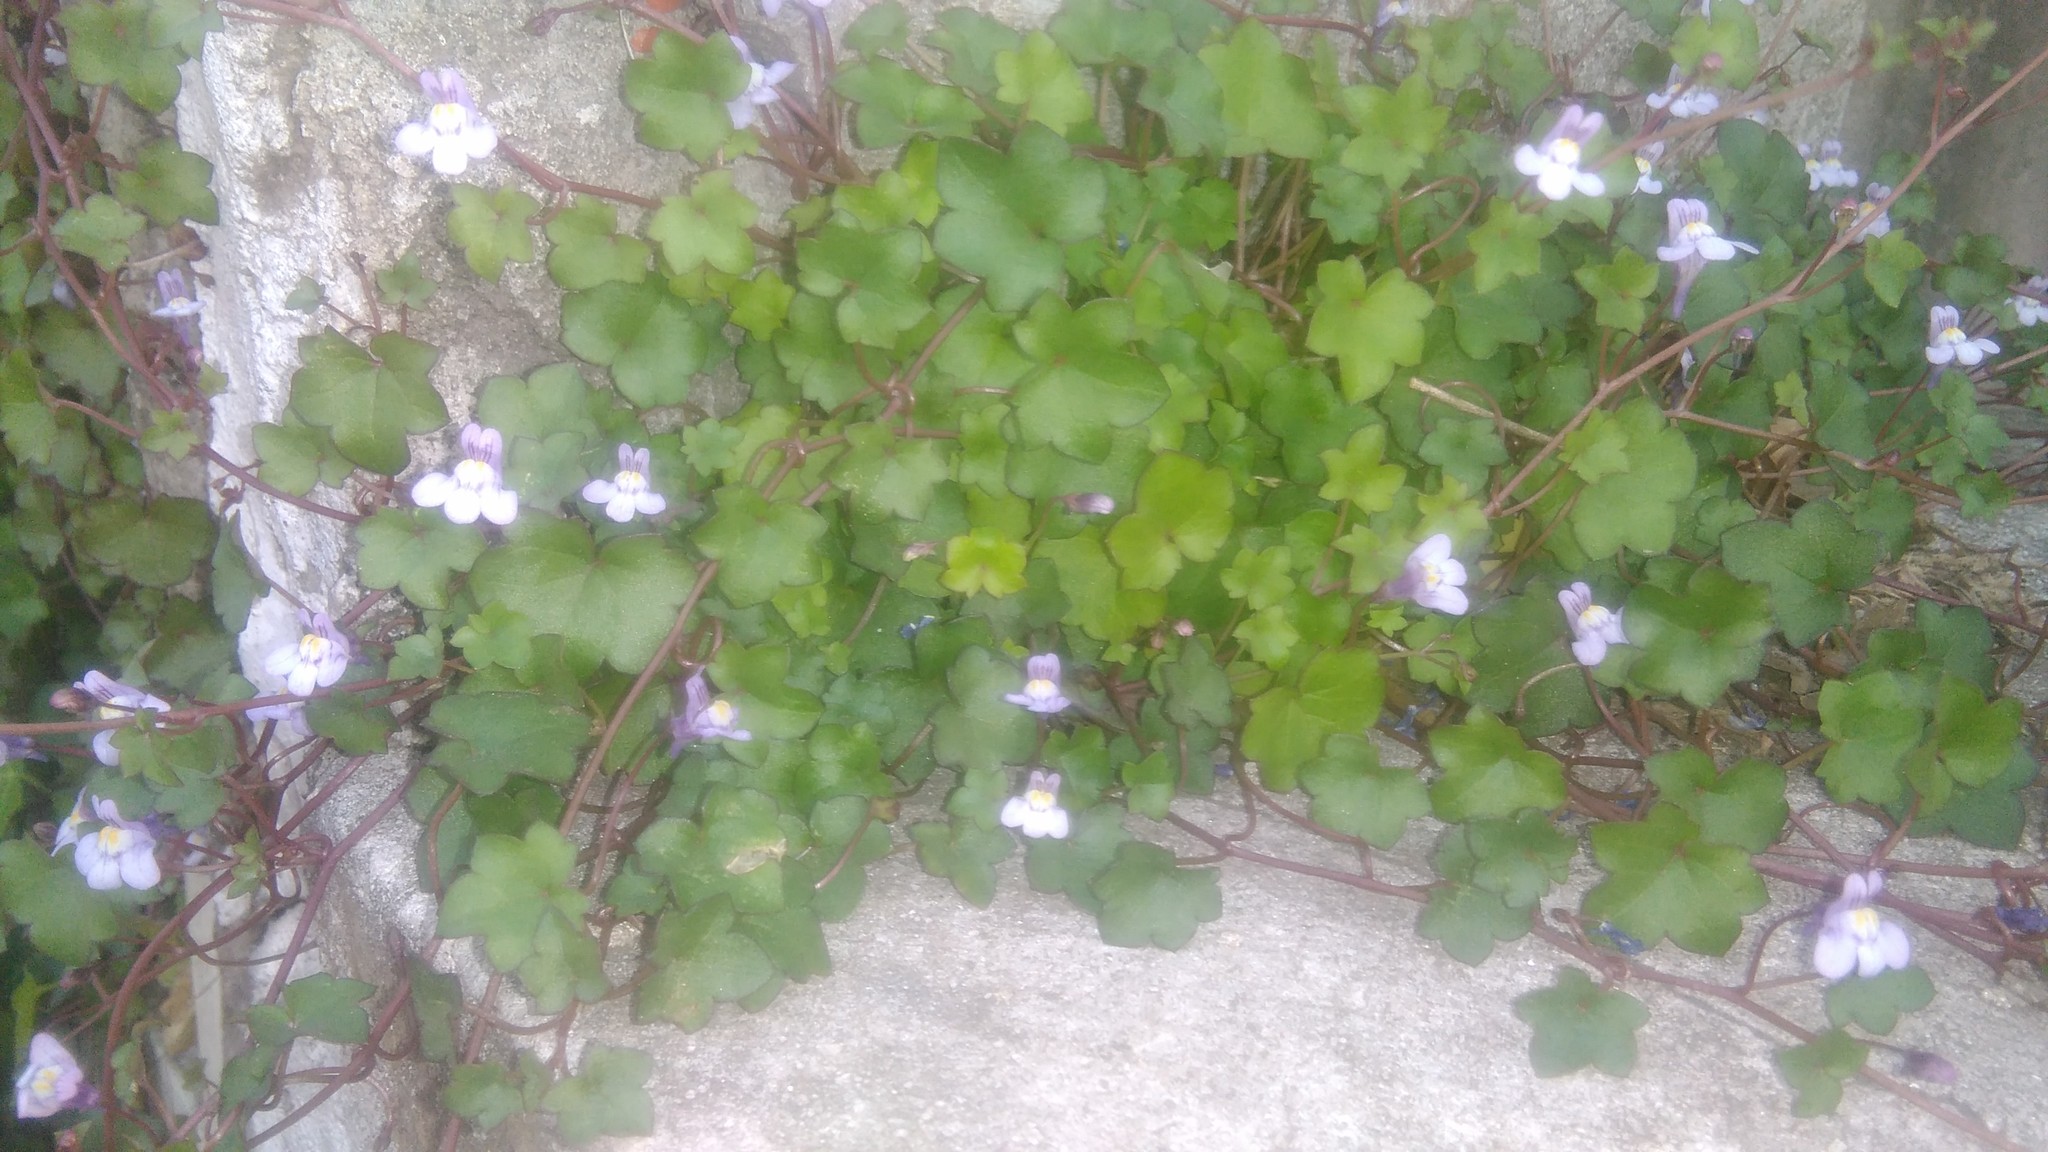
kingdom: Plantae
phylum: Tracheophyta
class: Magnoliopsida
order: Lamiales
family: Plantaginaceae
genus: Cymbalaria
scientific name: Cymbalaria muralis
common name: Ivy-leaved toadflax
